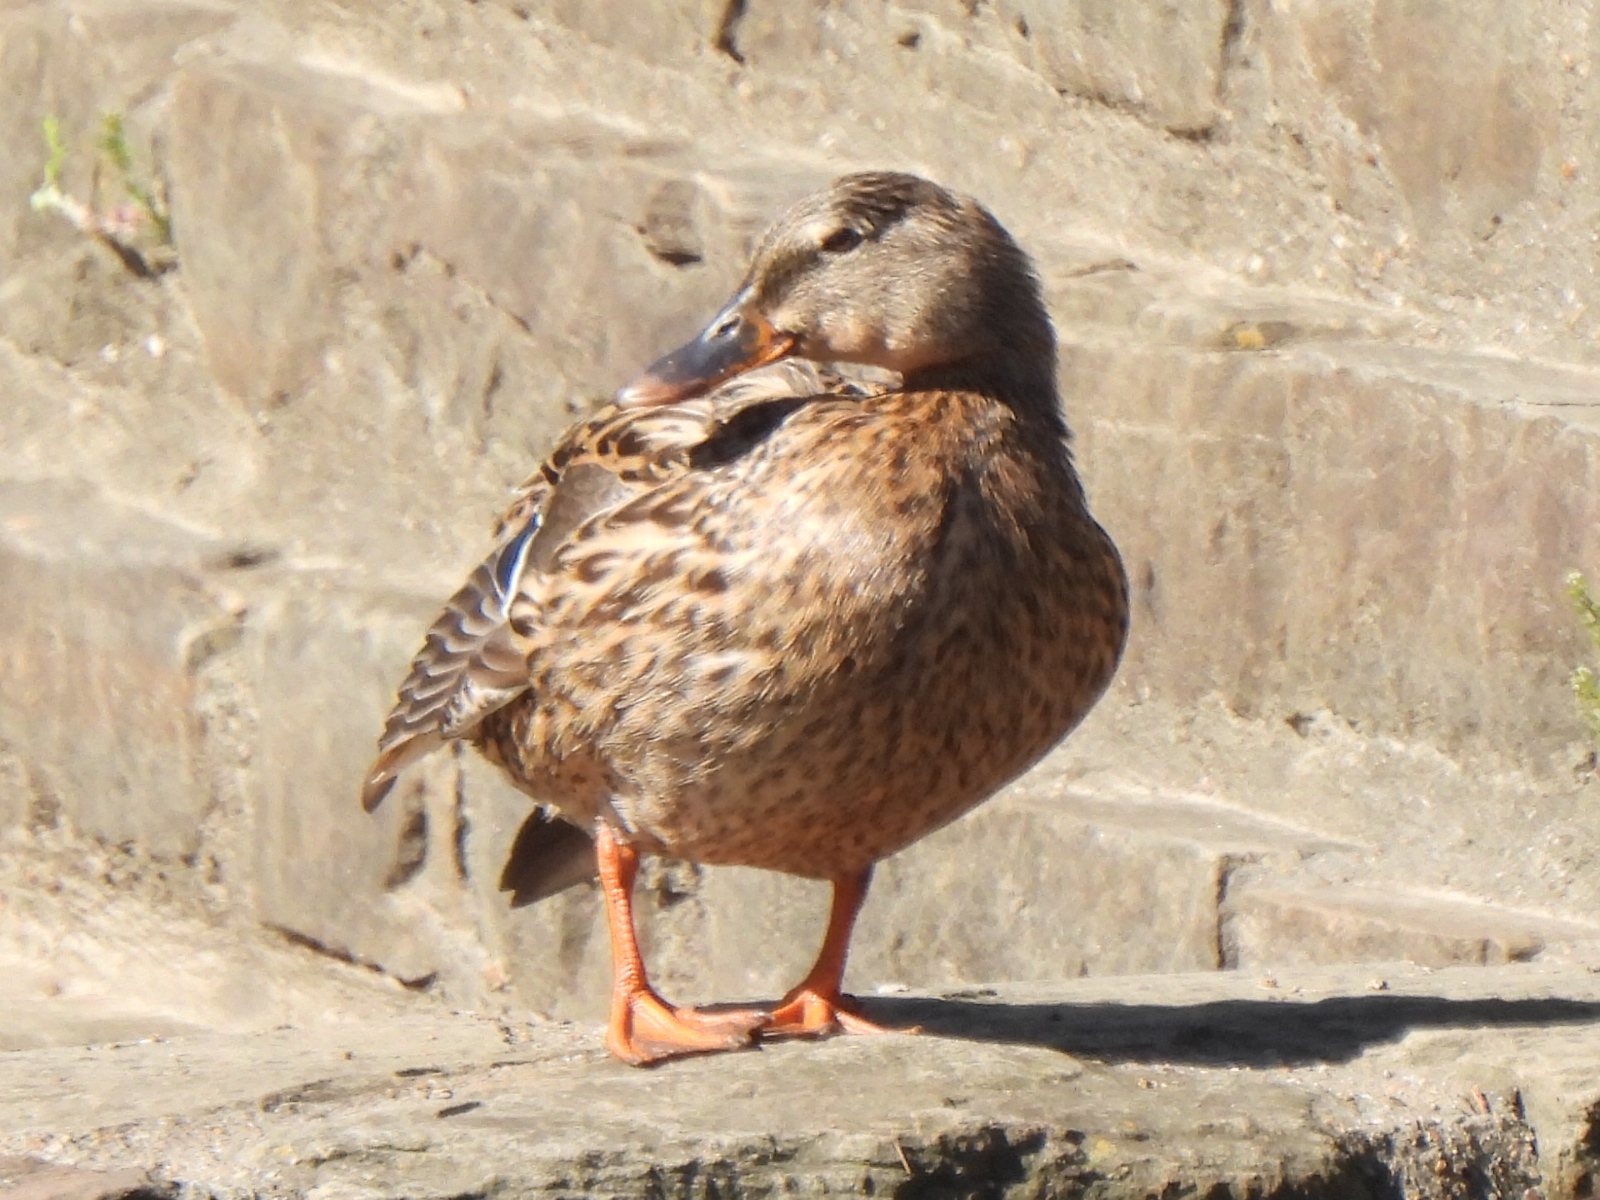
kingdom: Animalia
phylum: Chordata
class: Aves
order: Anseriformes
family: Anatidae
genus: Anas
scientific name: Anas platyrhynchos
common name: Mallard
